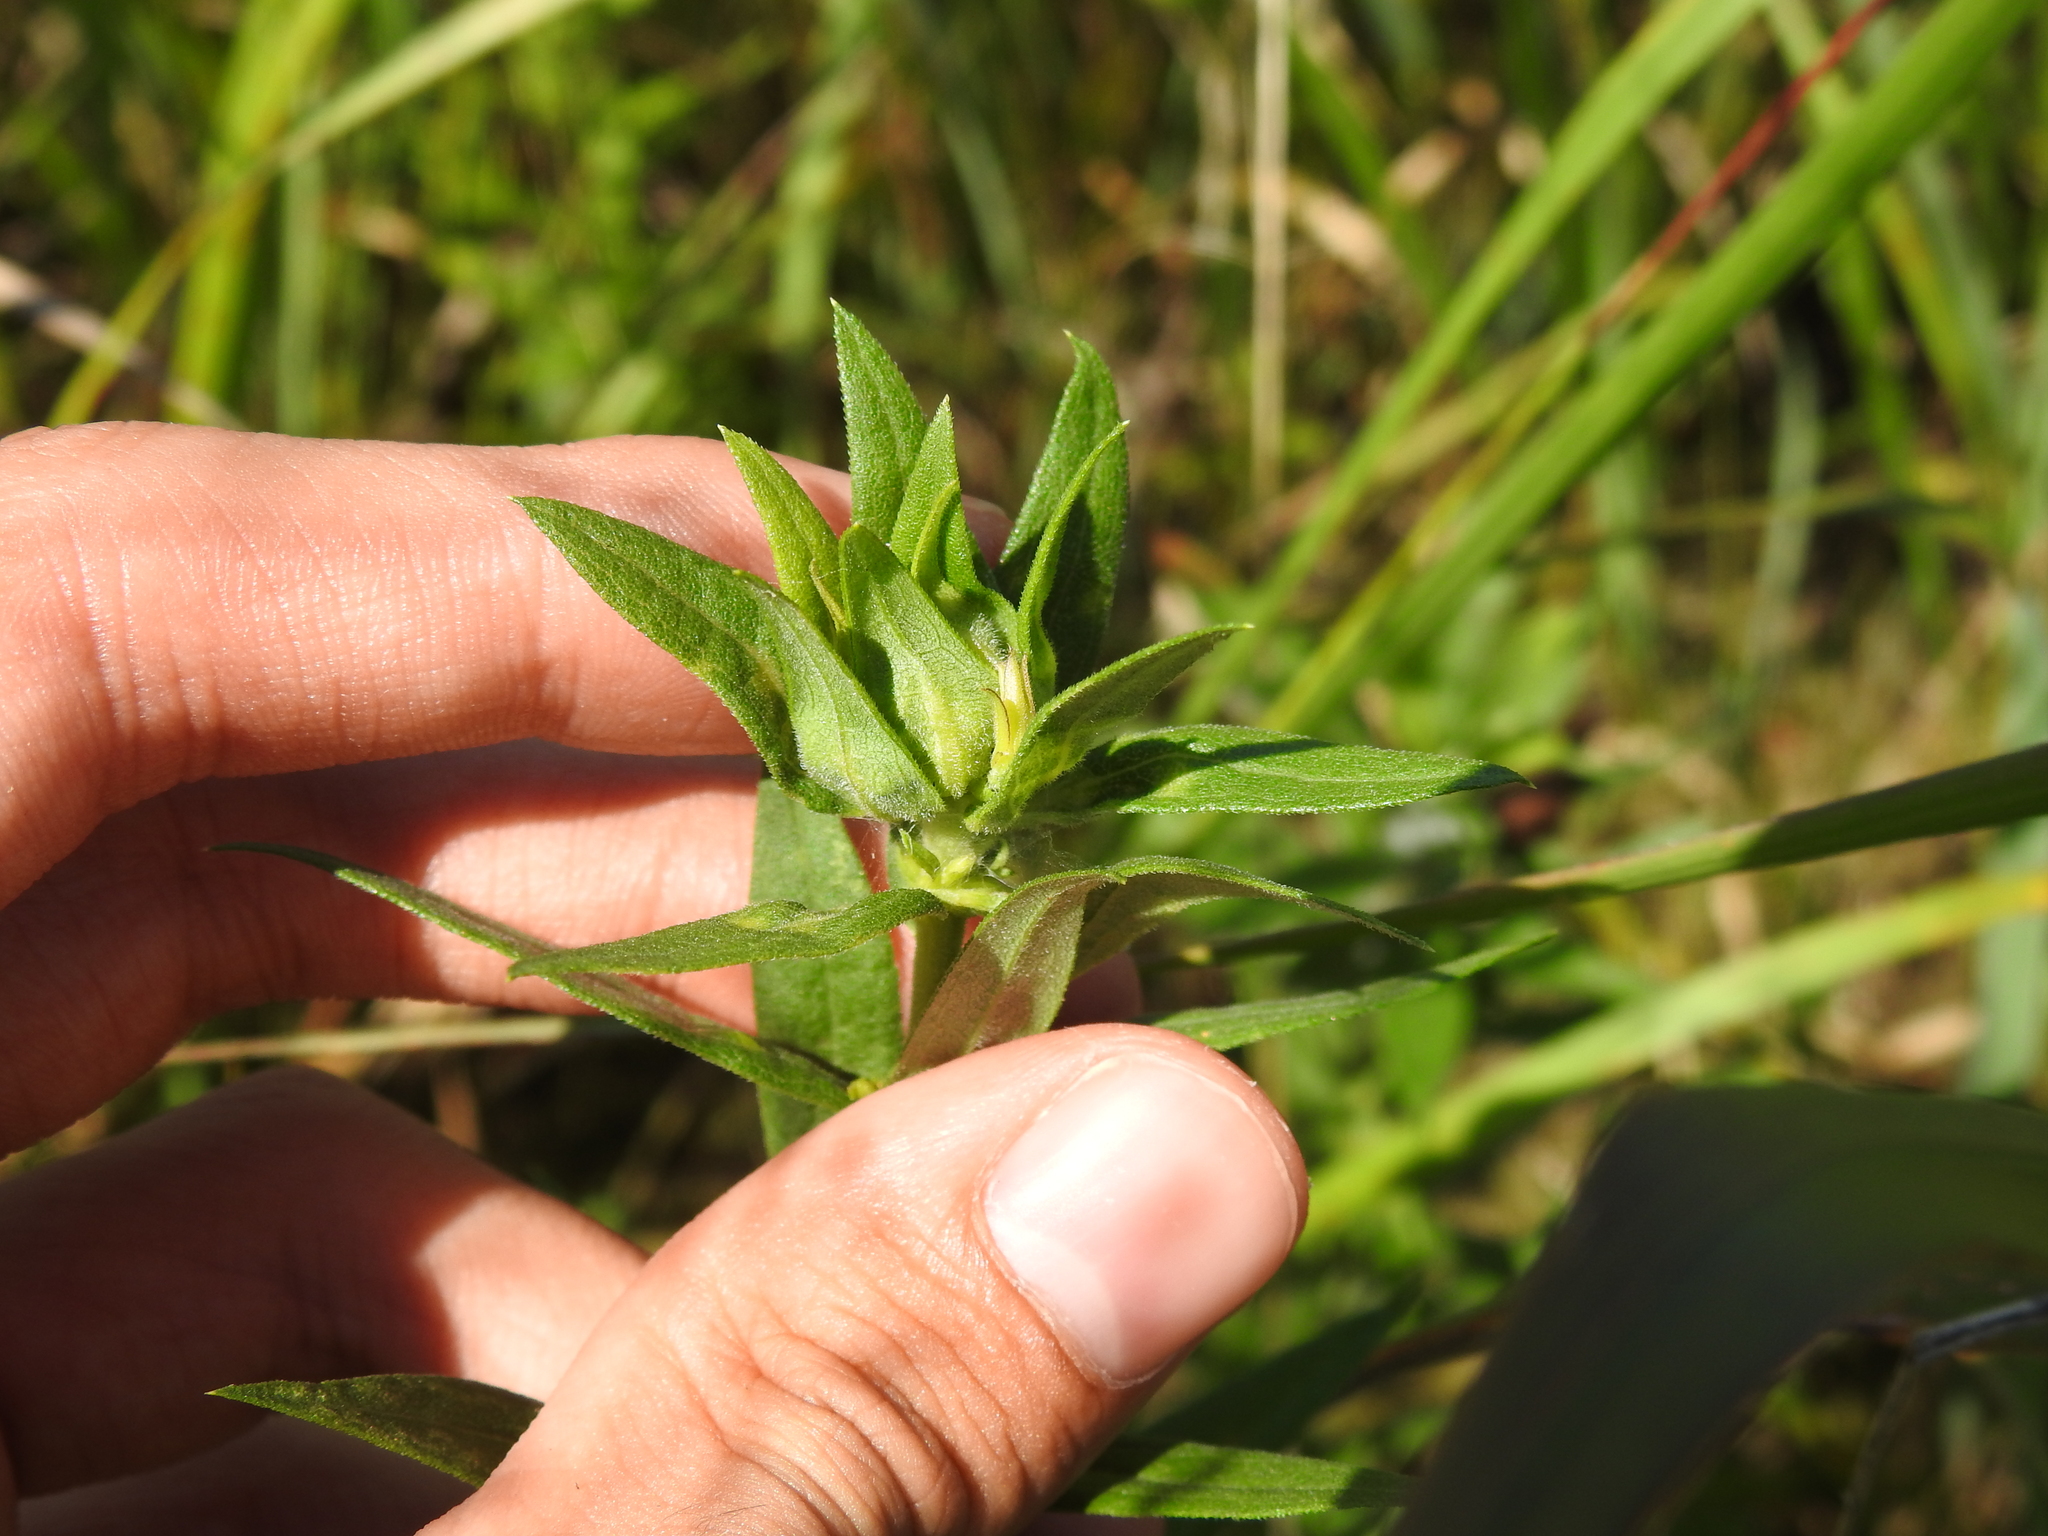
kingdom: Animalia
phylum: Arthropoda
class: Insecta
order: Diptera
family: Cecidomyiidae
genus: Dasineura
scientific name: Dasineura folliculi
